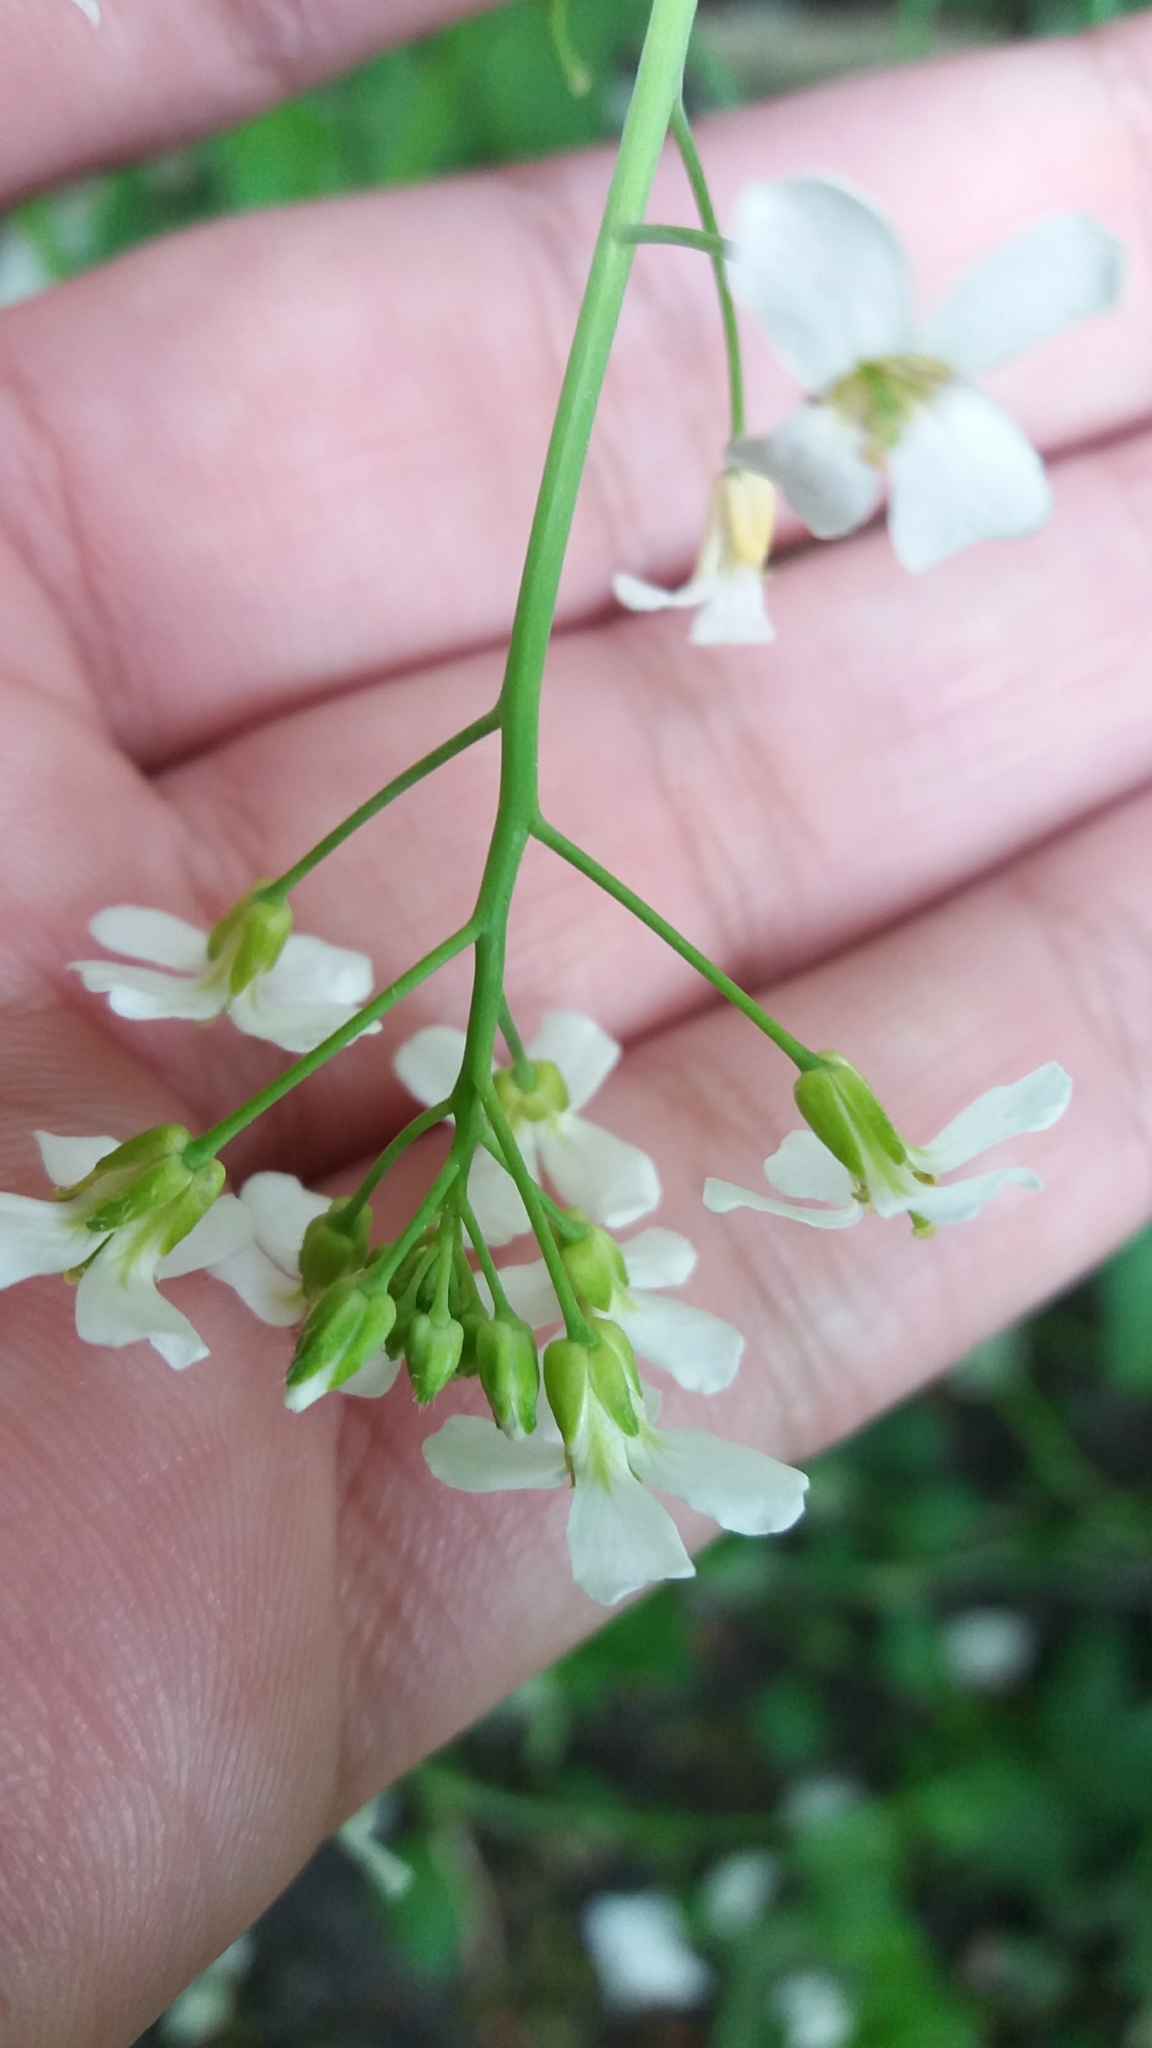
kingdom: Plantae
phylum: Tracheophyta
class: Magnoliopsida
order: Brassicales
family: Brassicaceae
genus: Arabidopsis
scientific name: Arabidopsis arenosa
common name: Sand rock-cress
